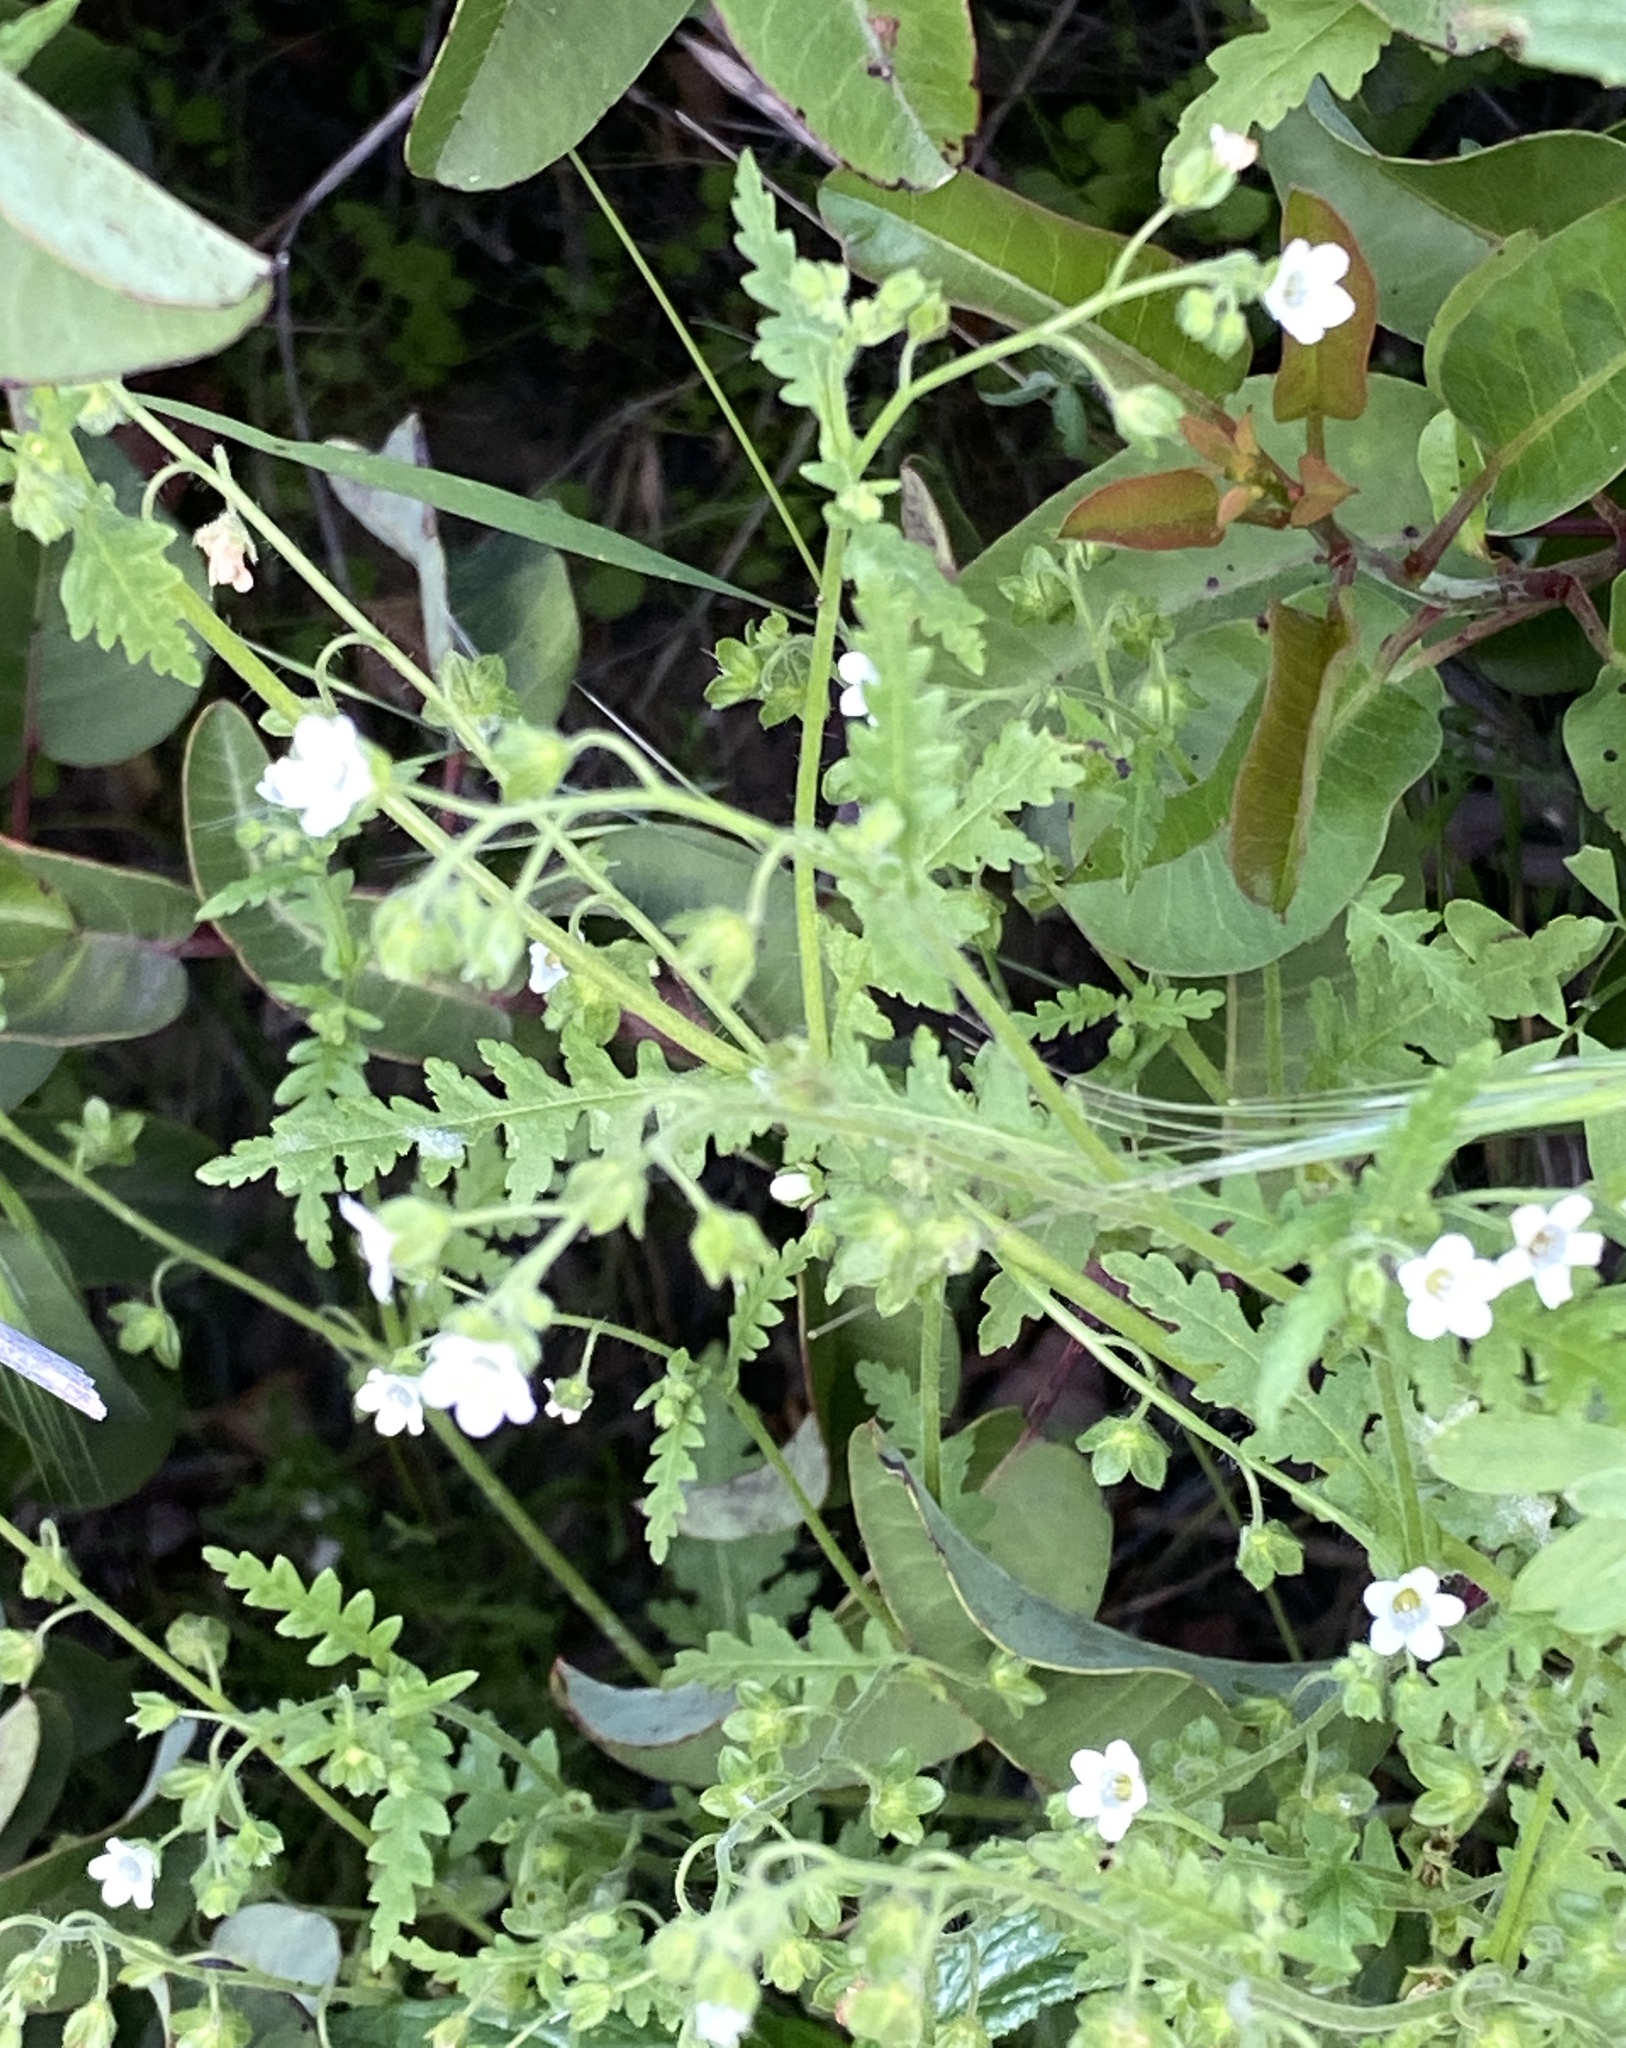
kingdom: Plantae
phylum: Tracheophyta
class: Magnoliopsida
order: Boraginales
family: Hydrophyllaceae
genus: Eucrypta
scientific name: Eucrypta chrysanthemifolia
